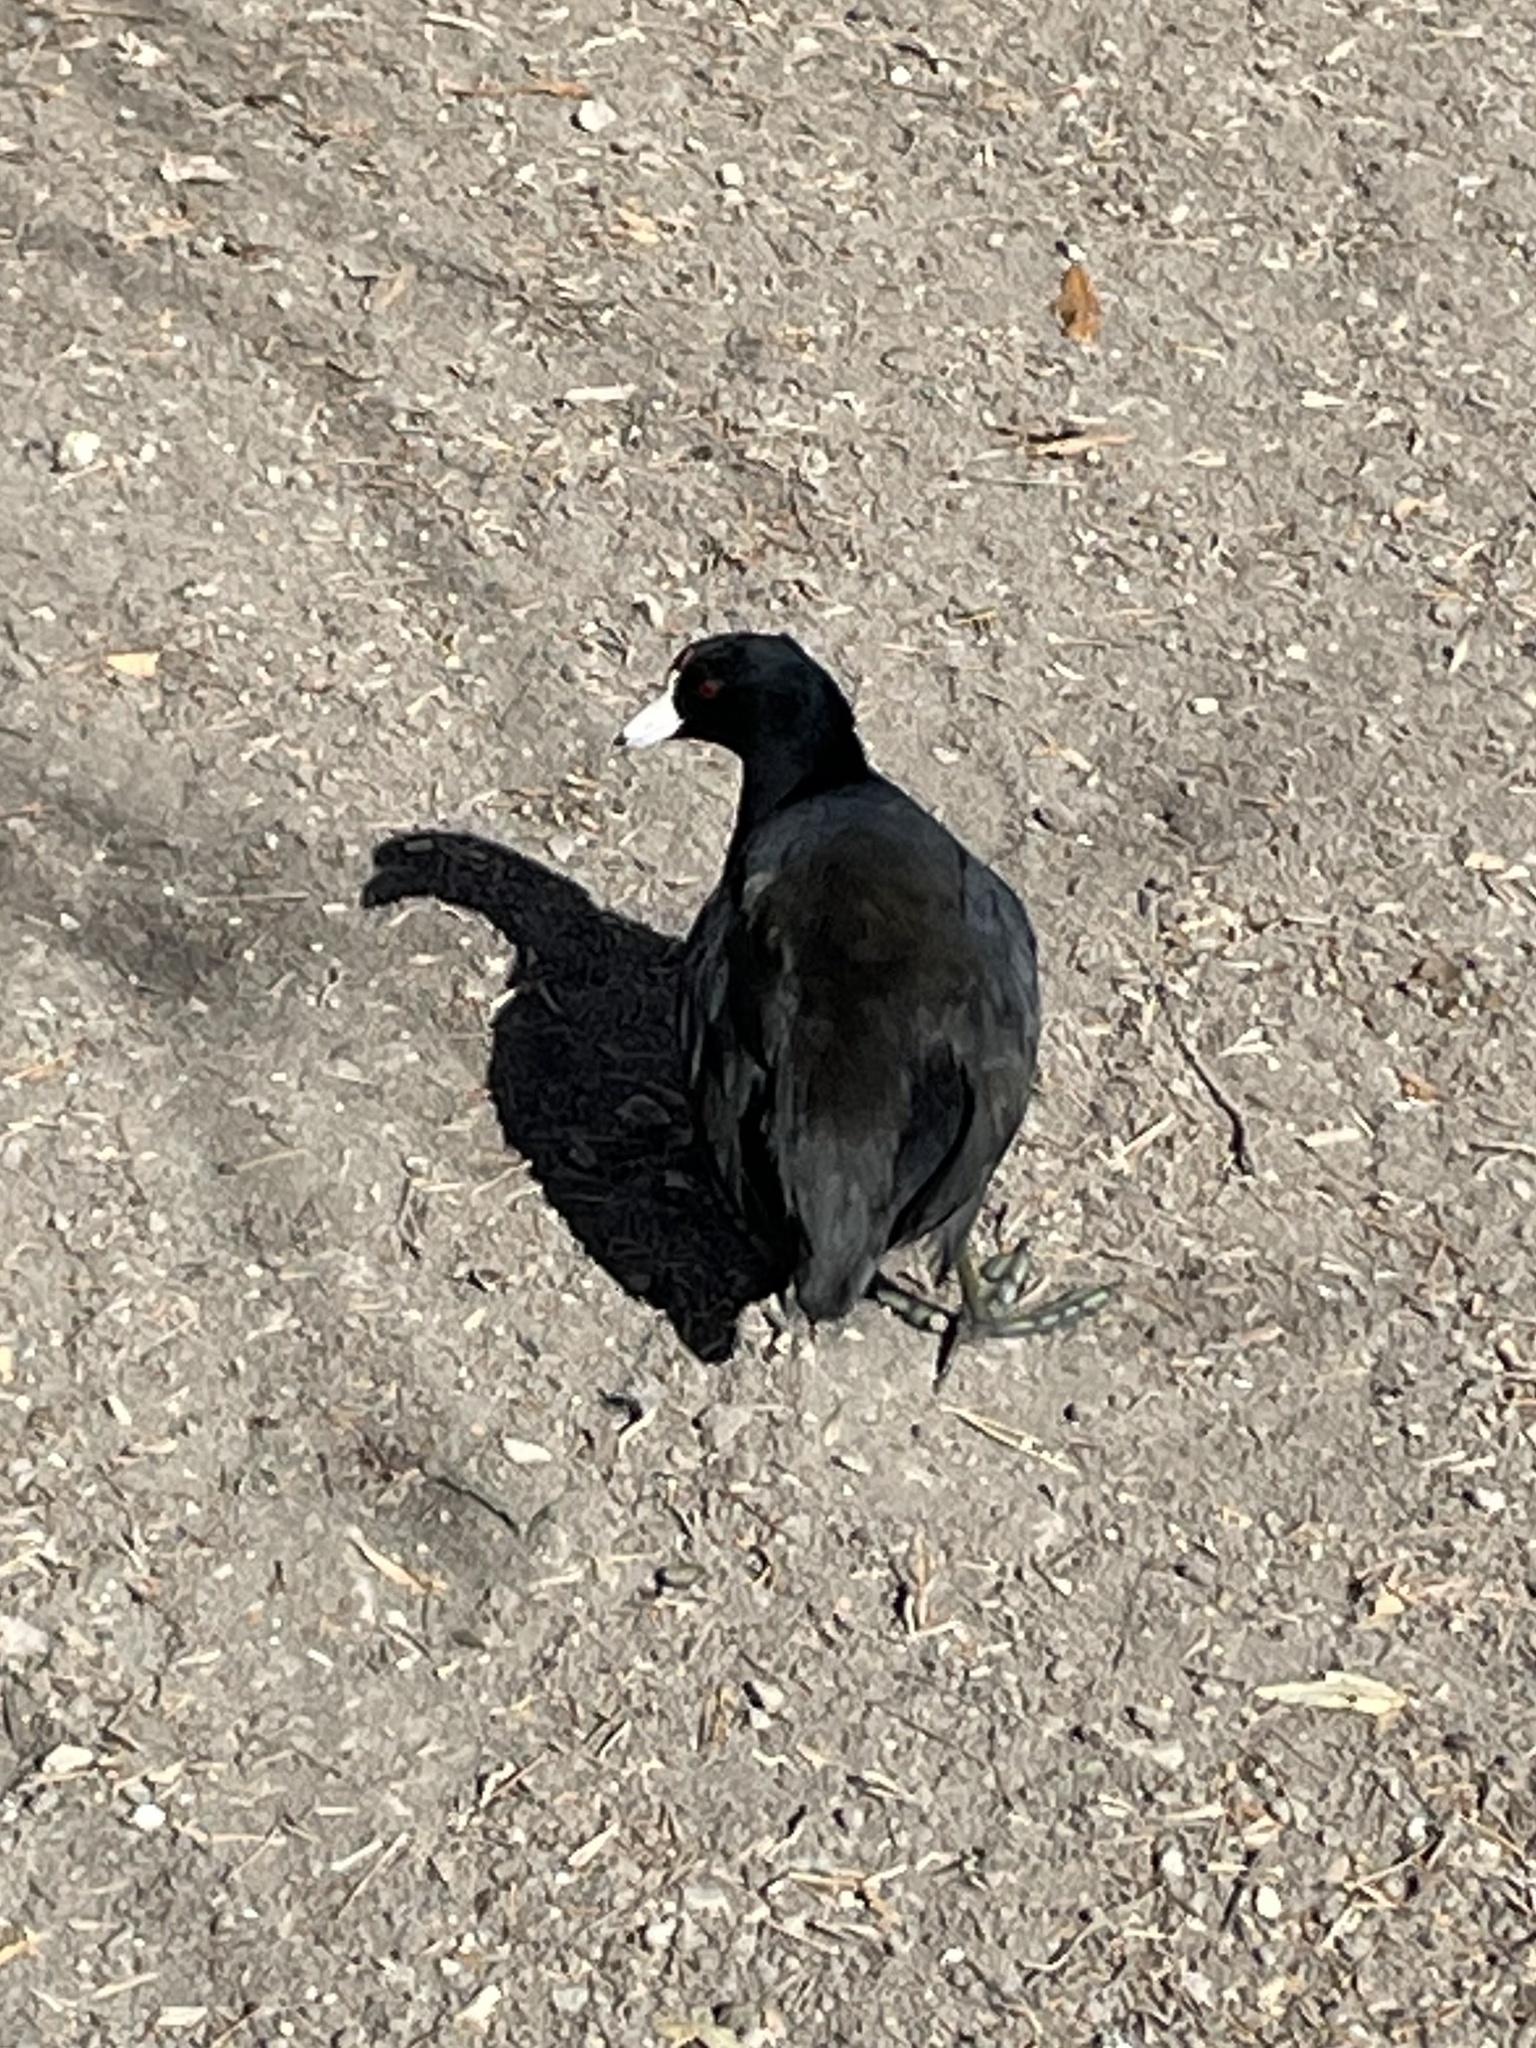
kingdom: Animalia
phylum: Chordata
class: Aves
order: Gruiformes
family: Rallidae
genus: Fulica
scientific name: Fulica americana
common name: American coot
